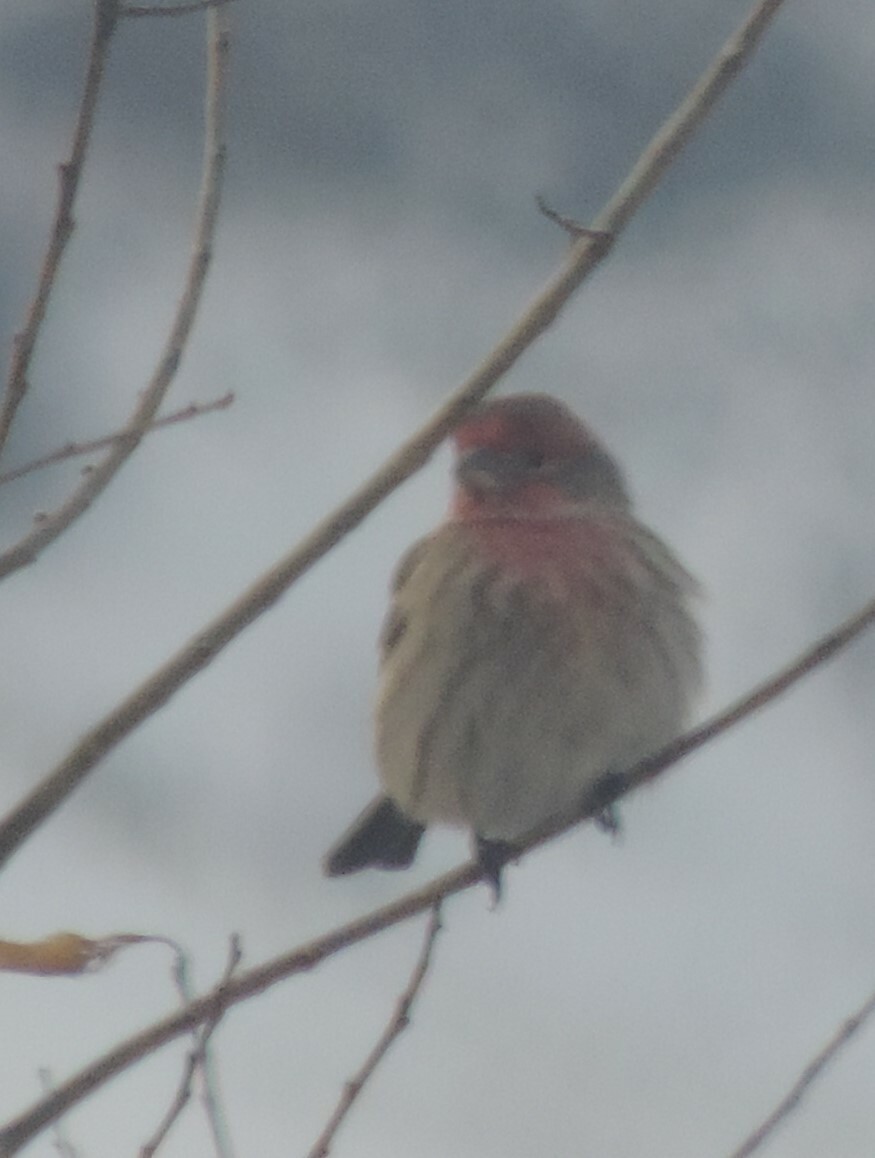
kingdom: Animalia
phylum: Chordata
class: Aves
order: Passeriformes
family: Fringillidae
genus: Haemorhous
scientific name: Haemorhous mexicanus
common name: House finch
